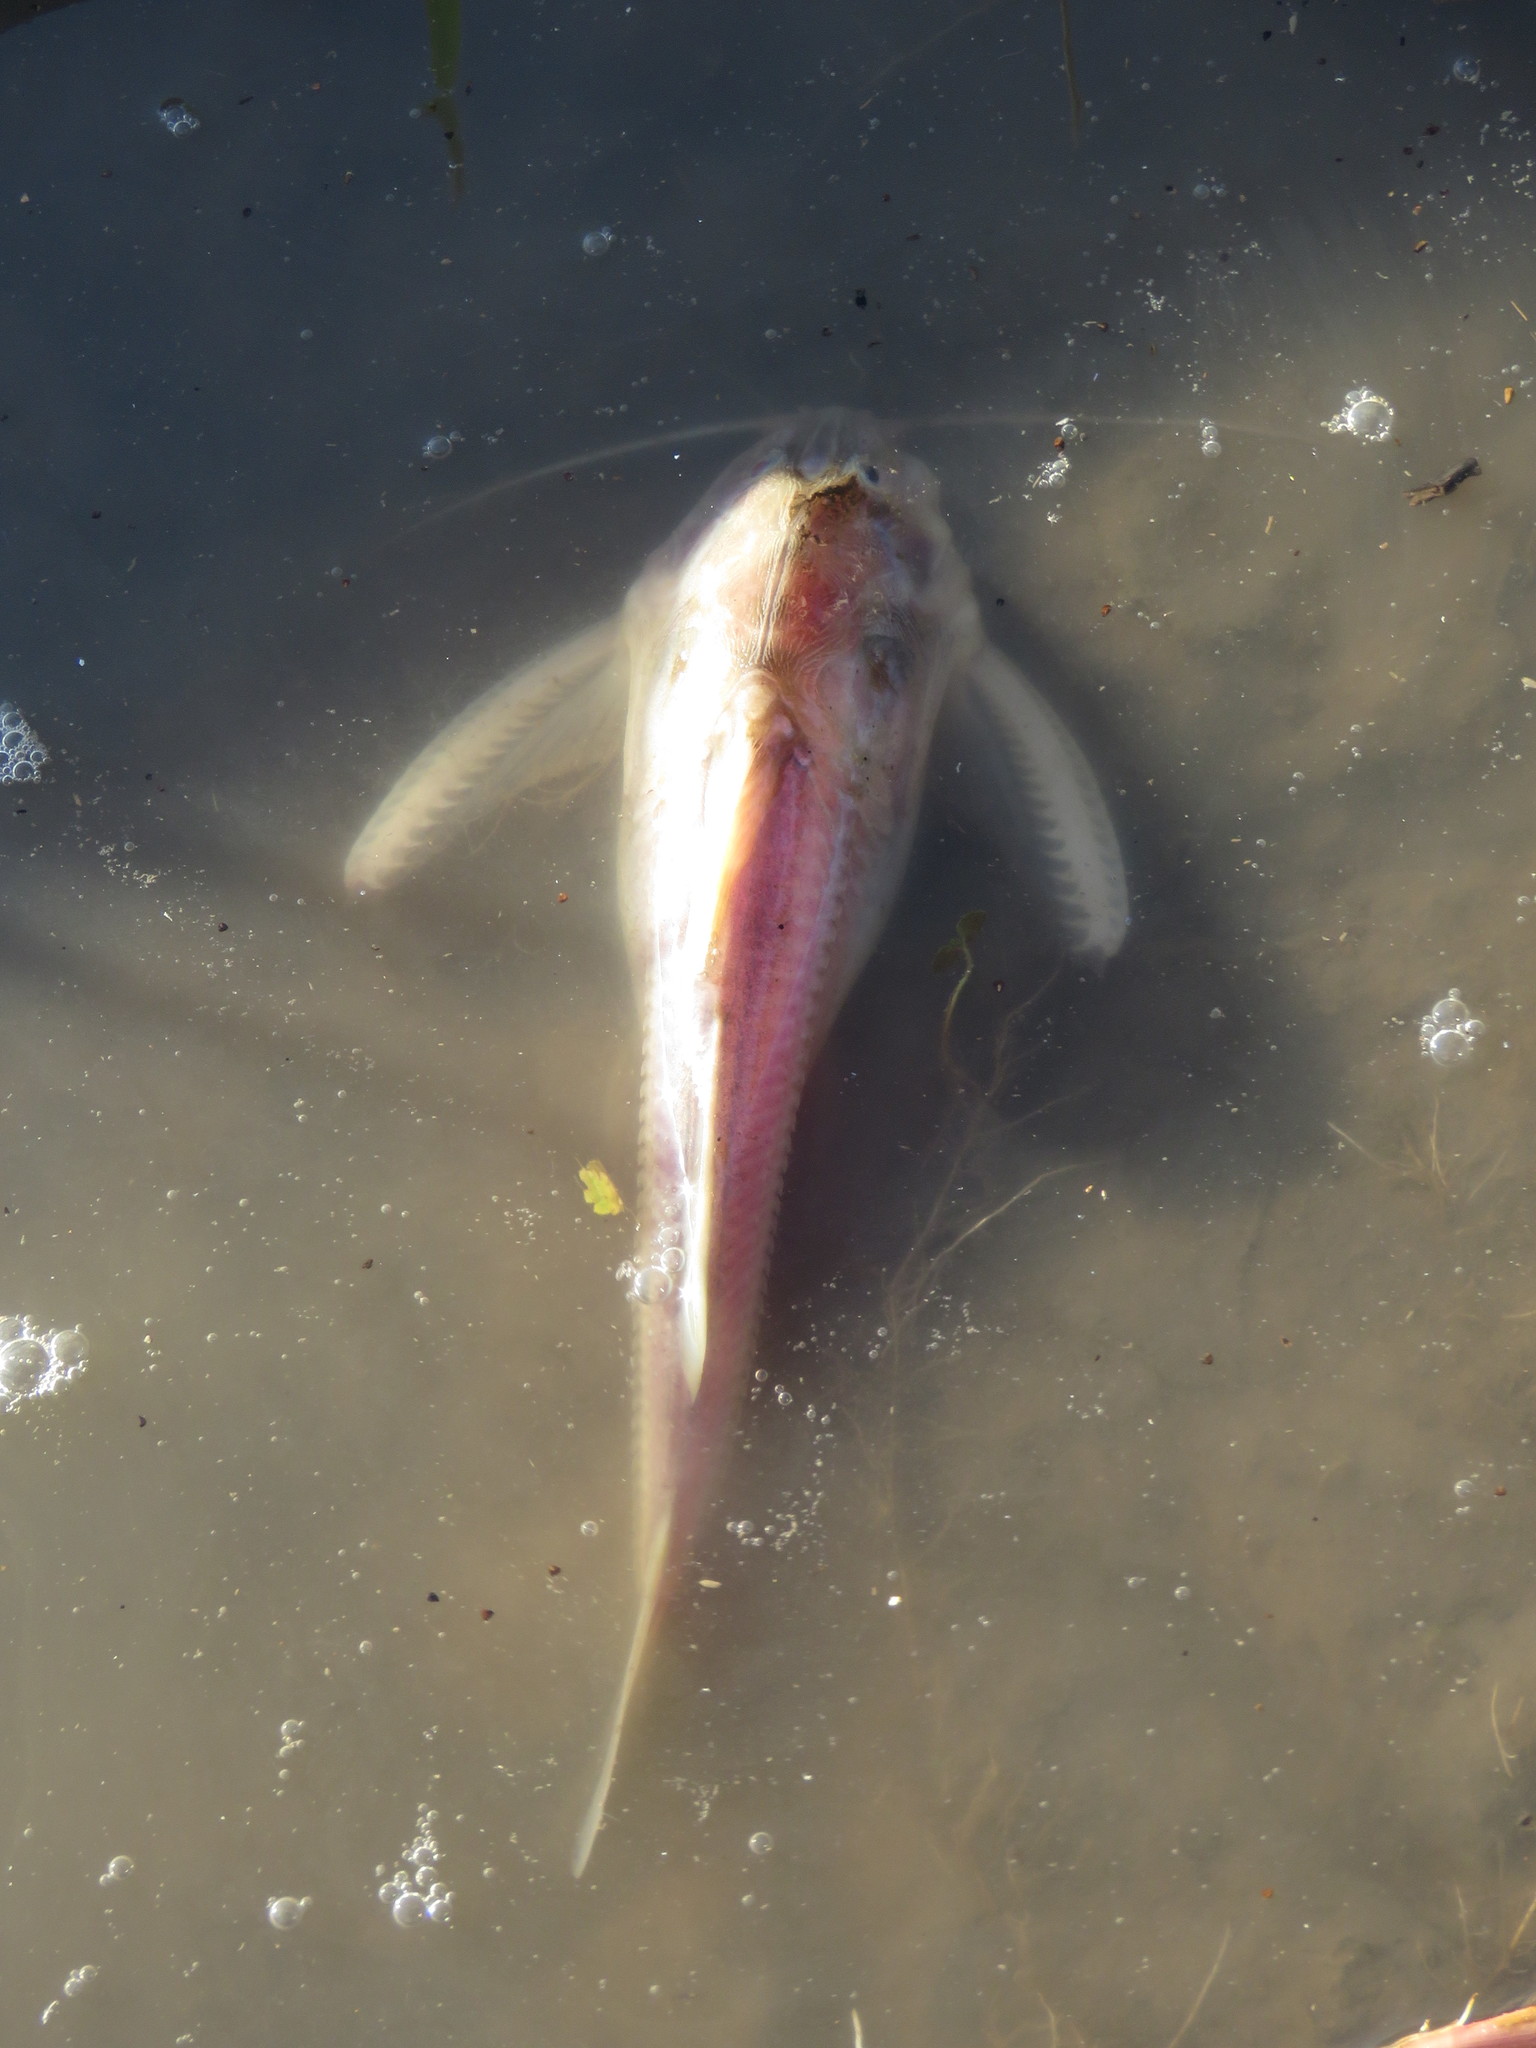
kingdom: Animalia
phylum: Chordata
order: Siluriformes
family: Doradidae
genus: Centrodoras
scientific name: Centrodoras brachiatus
